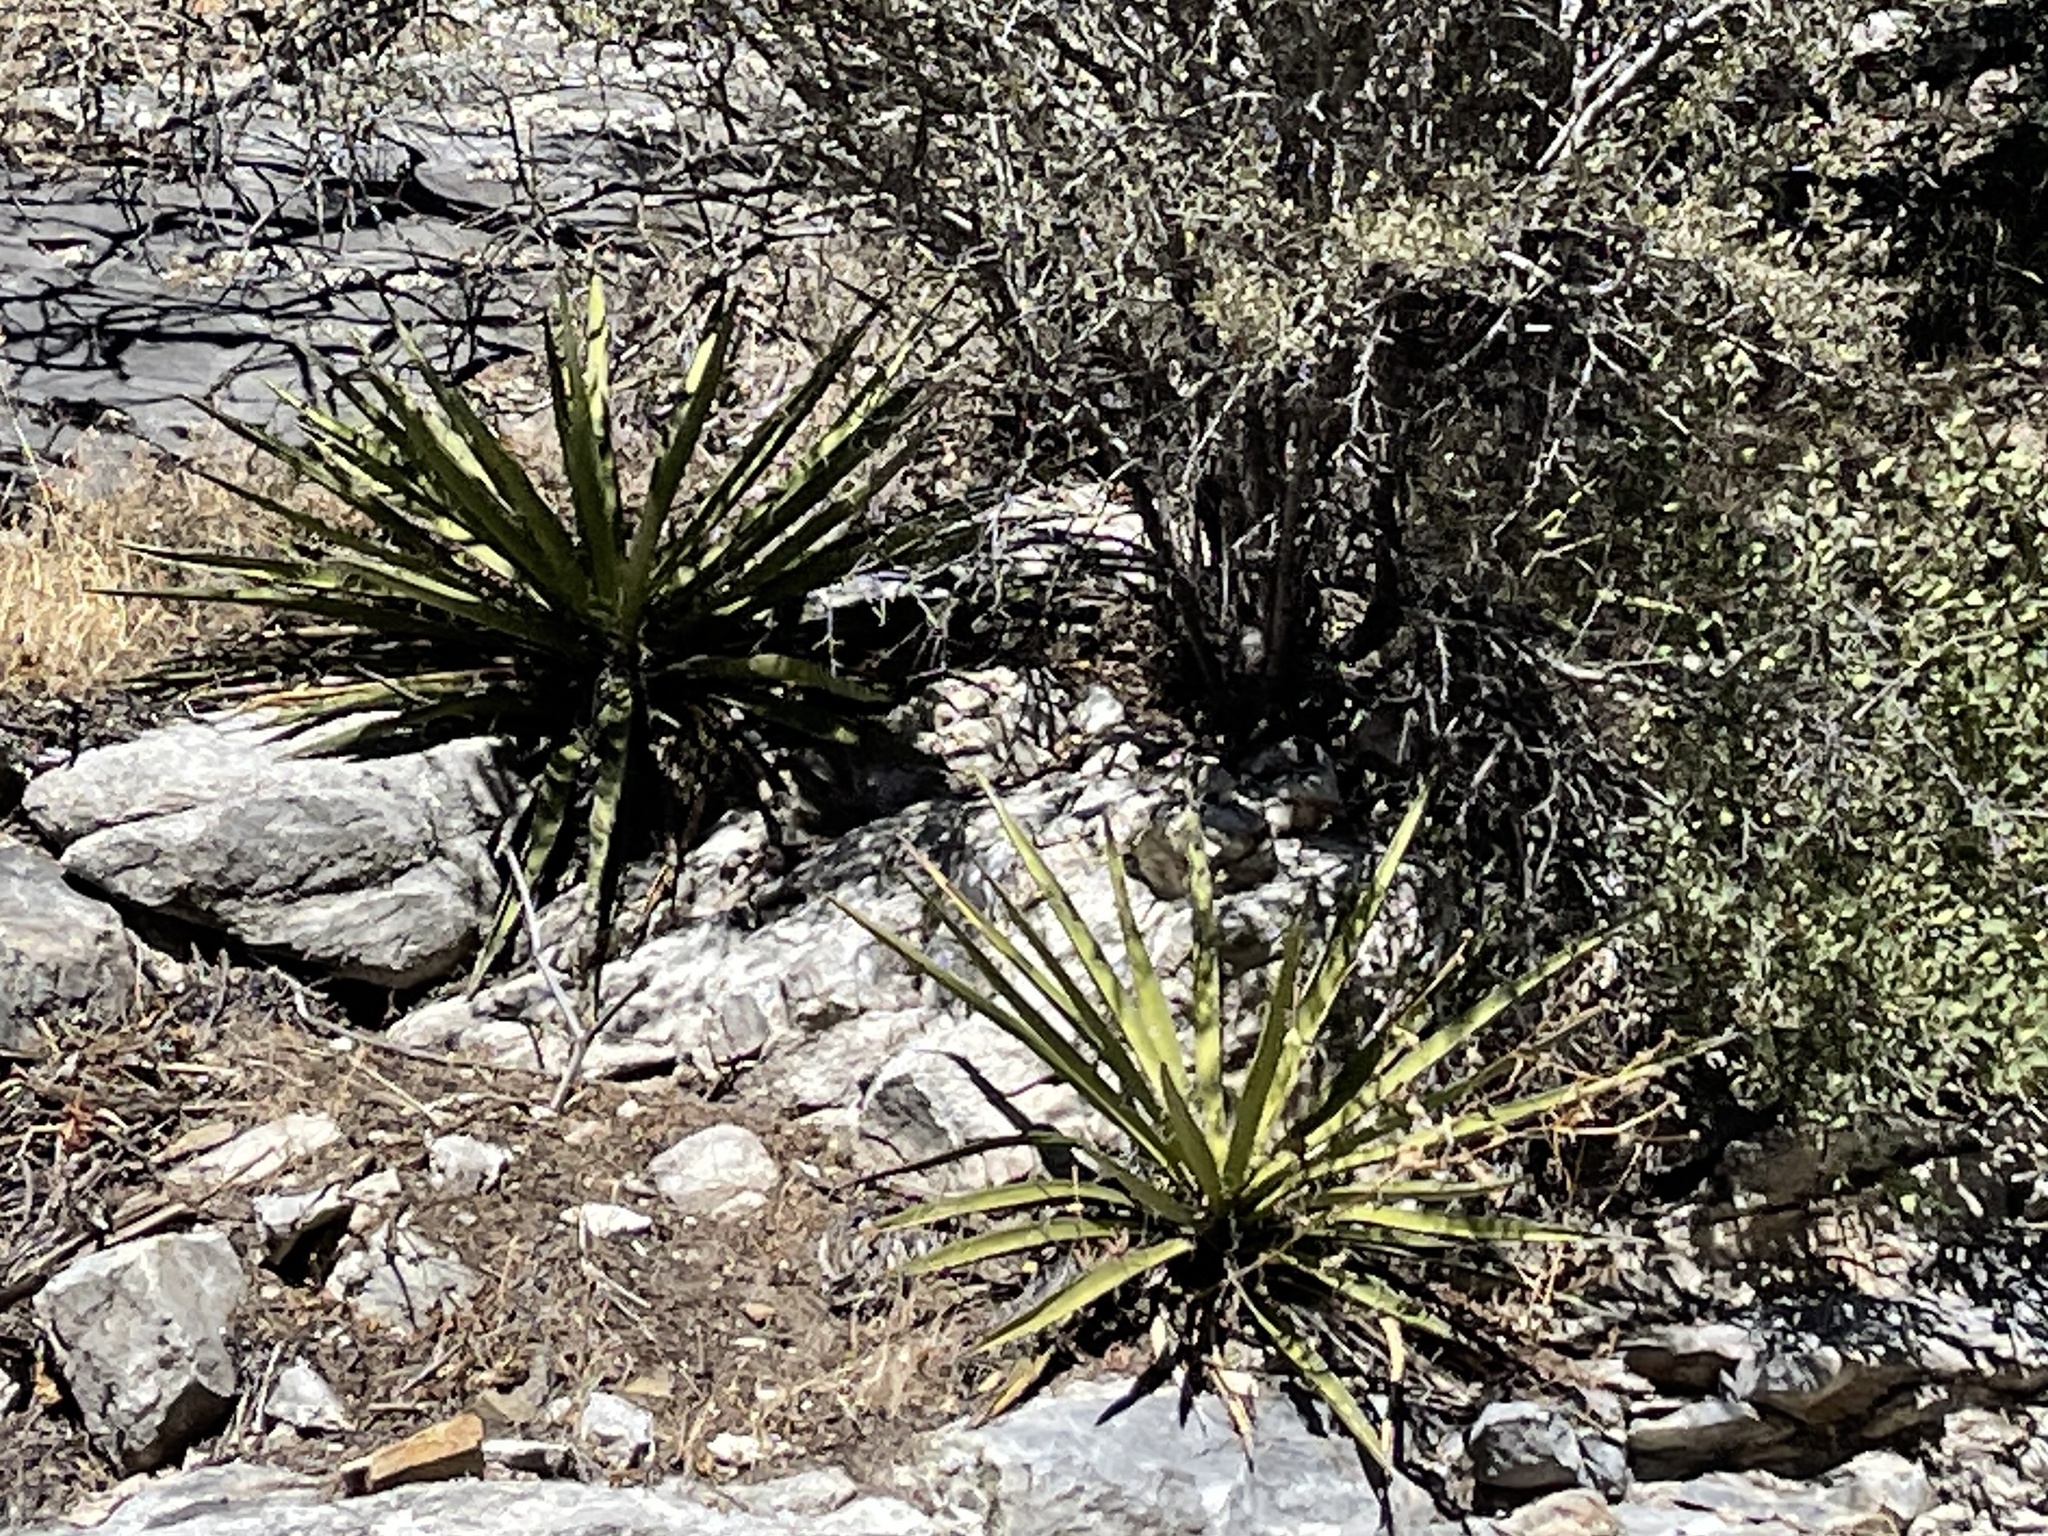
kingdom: Plantae
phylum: Tracheophyta
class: Liliopsida
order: Asparagales
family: Asparagaceae
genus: Yucca
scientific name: Yucca baccata
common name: Banana yucca
